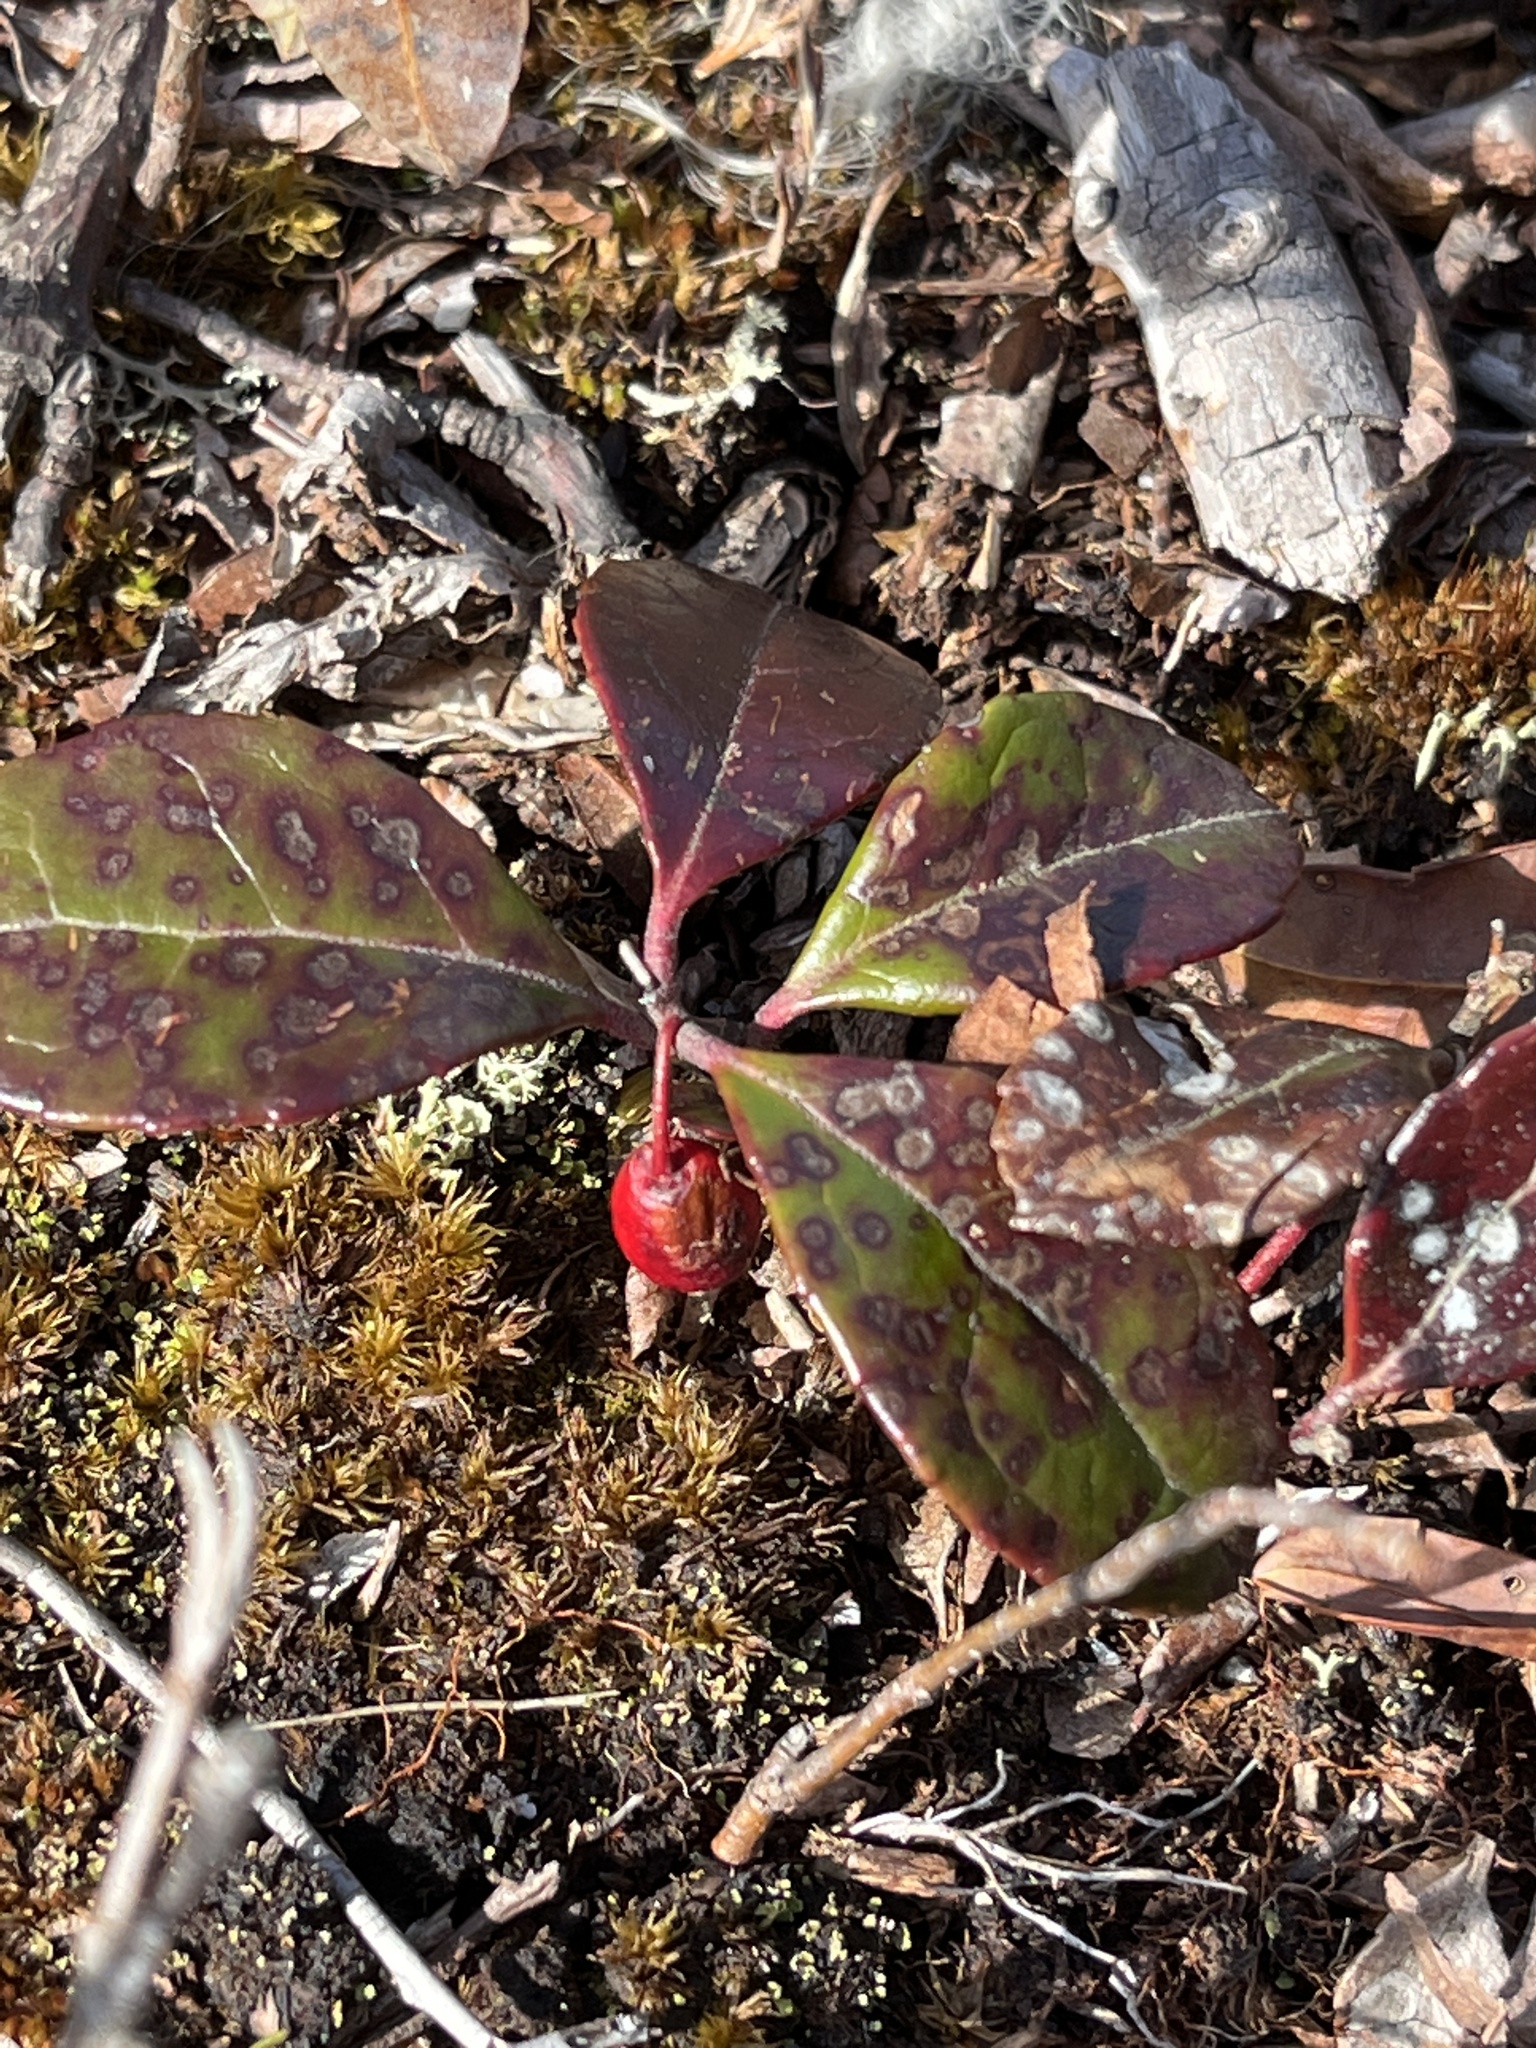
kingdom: Plantae
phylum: Tracheophyta
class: Magnoliopsida
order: Ericales
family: Ericaceae
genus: Gaultheria
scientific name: Gaultheria procumbens
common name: Checkerberry
